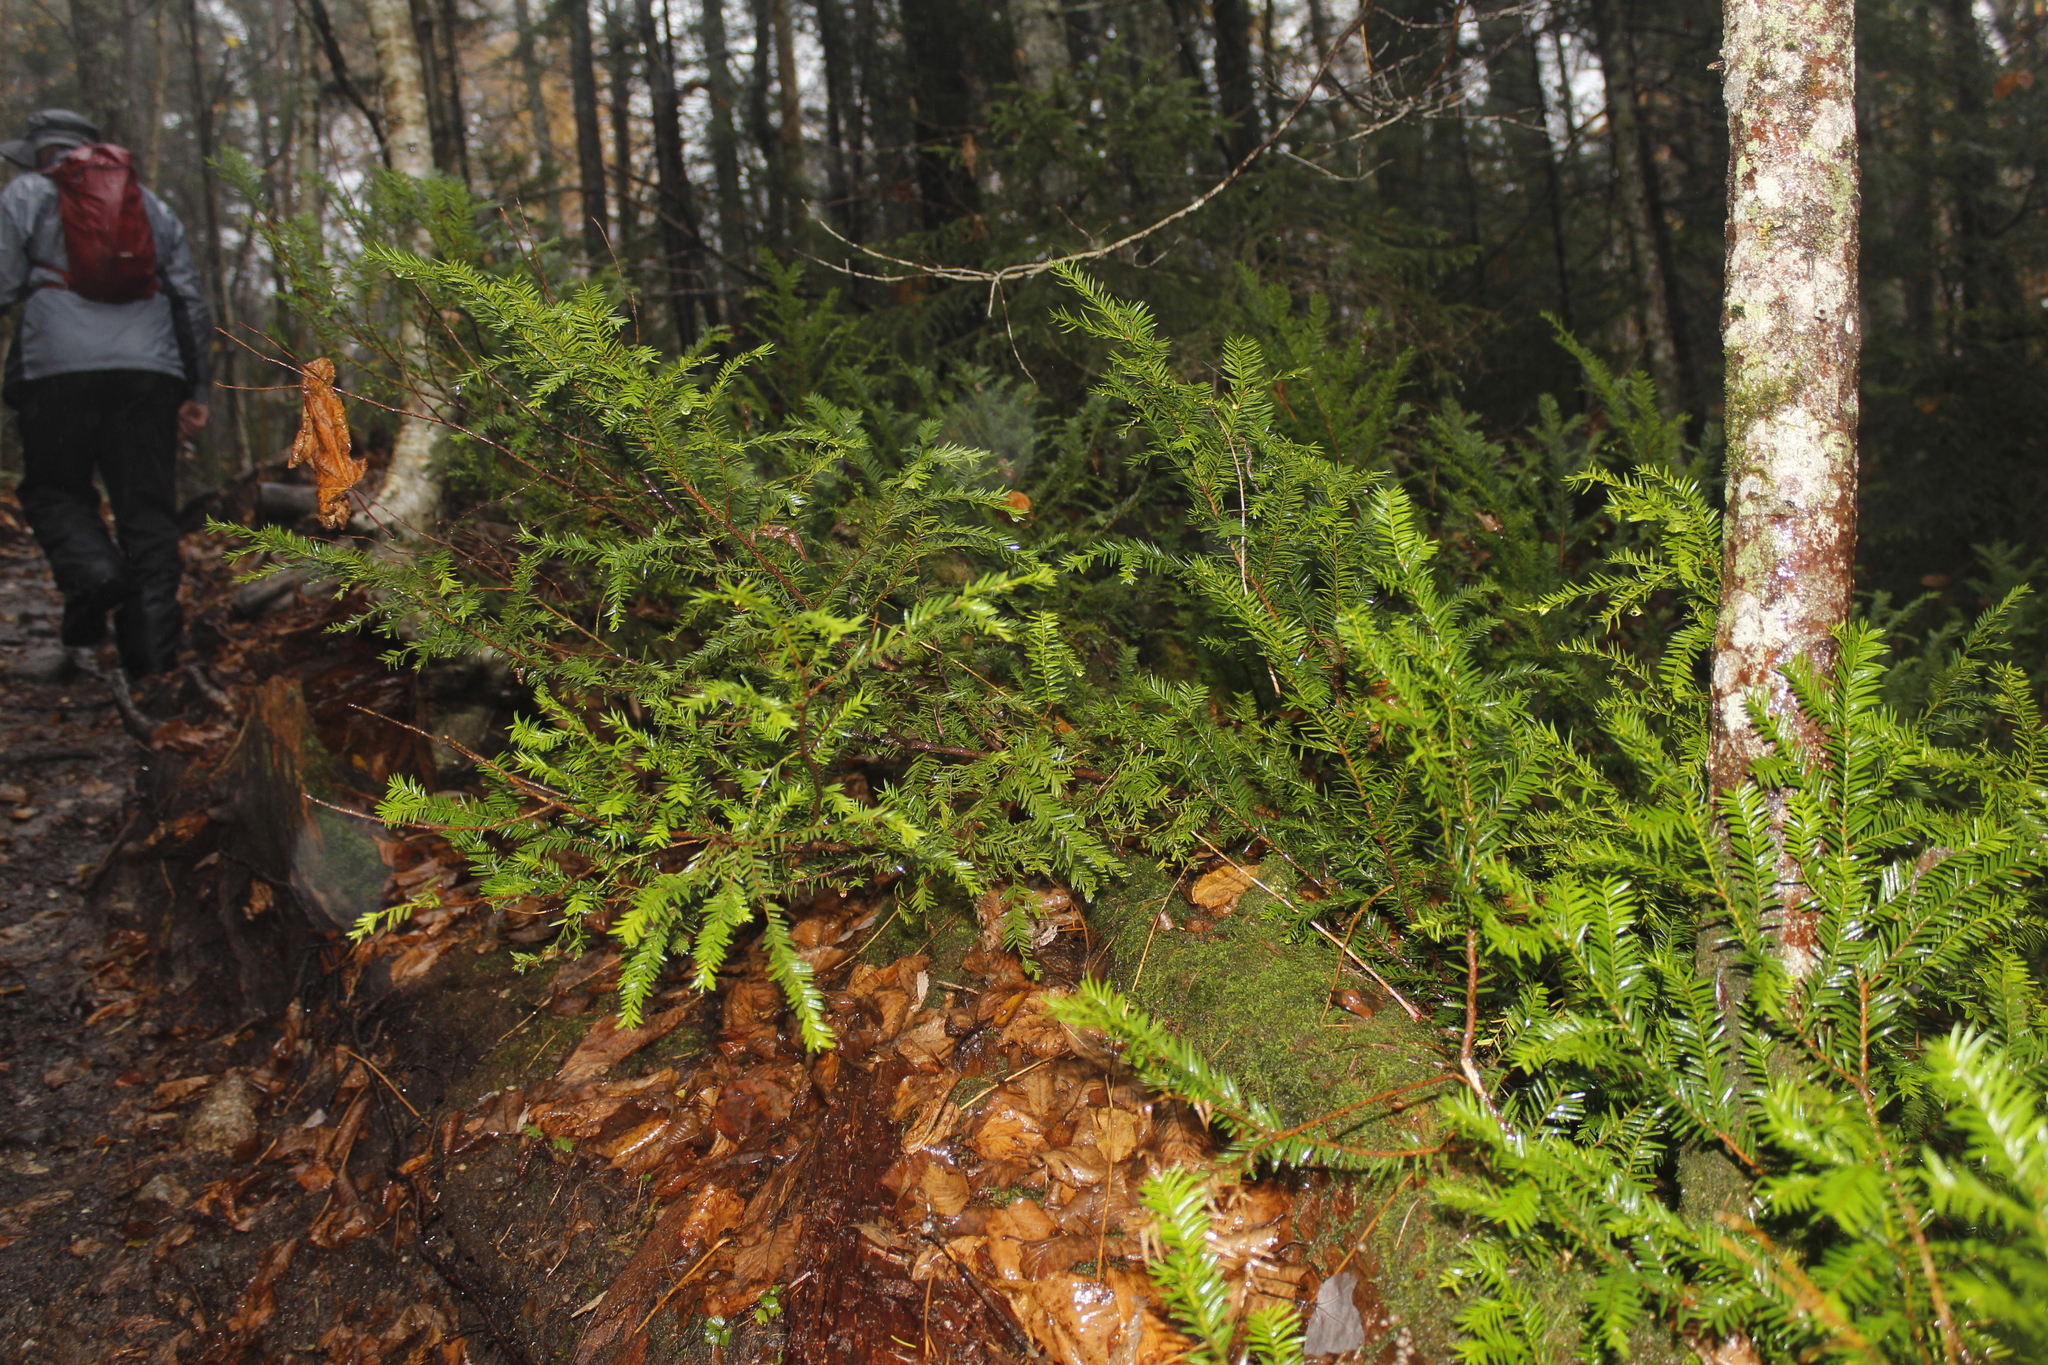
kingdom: Plantae
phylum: Tracheophyta
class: Pinopsida
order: Pinales
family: Taxaceae
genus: Taxus
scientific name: Taxus canadensis
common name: American yew
